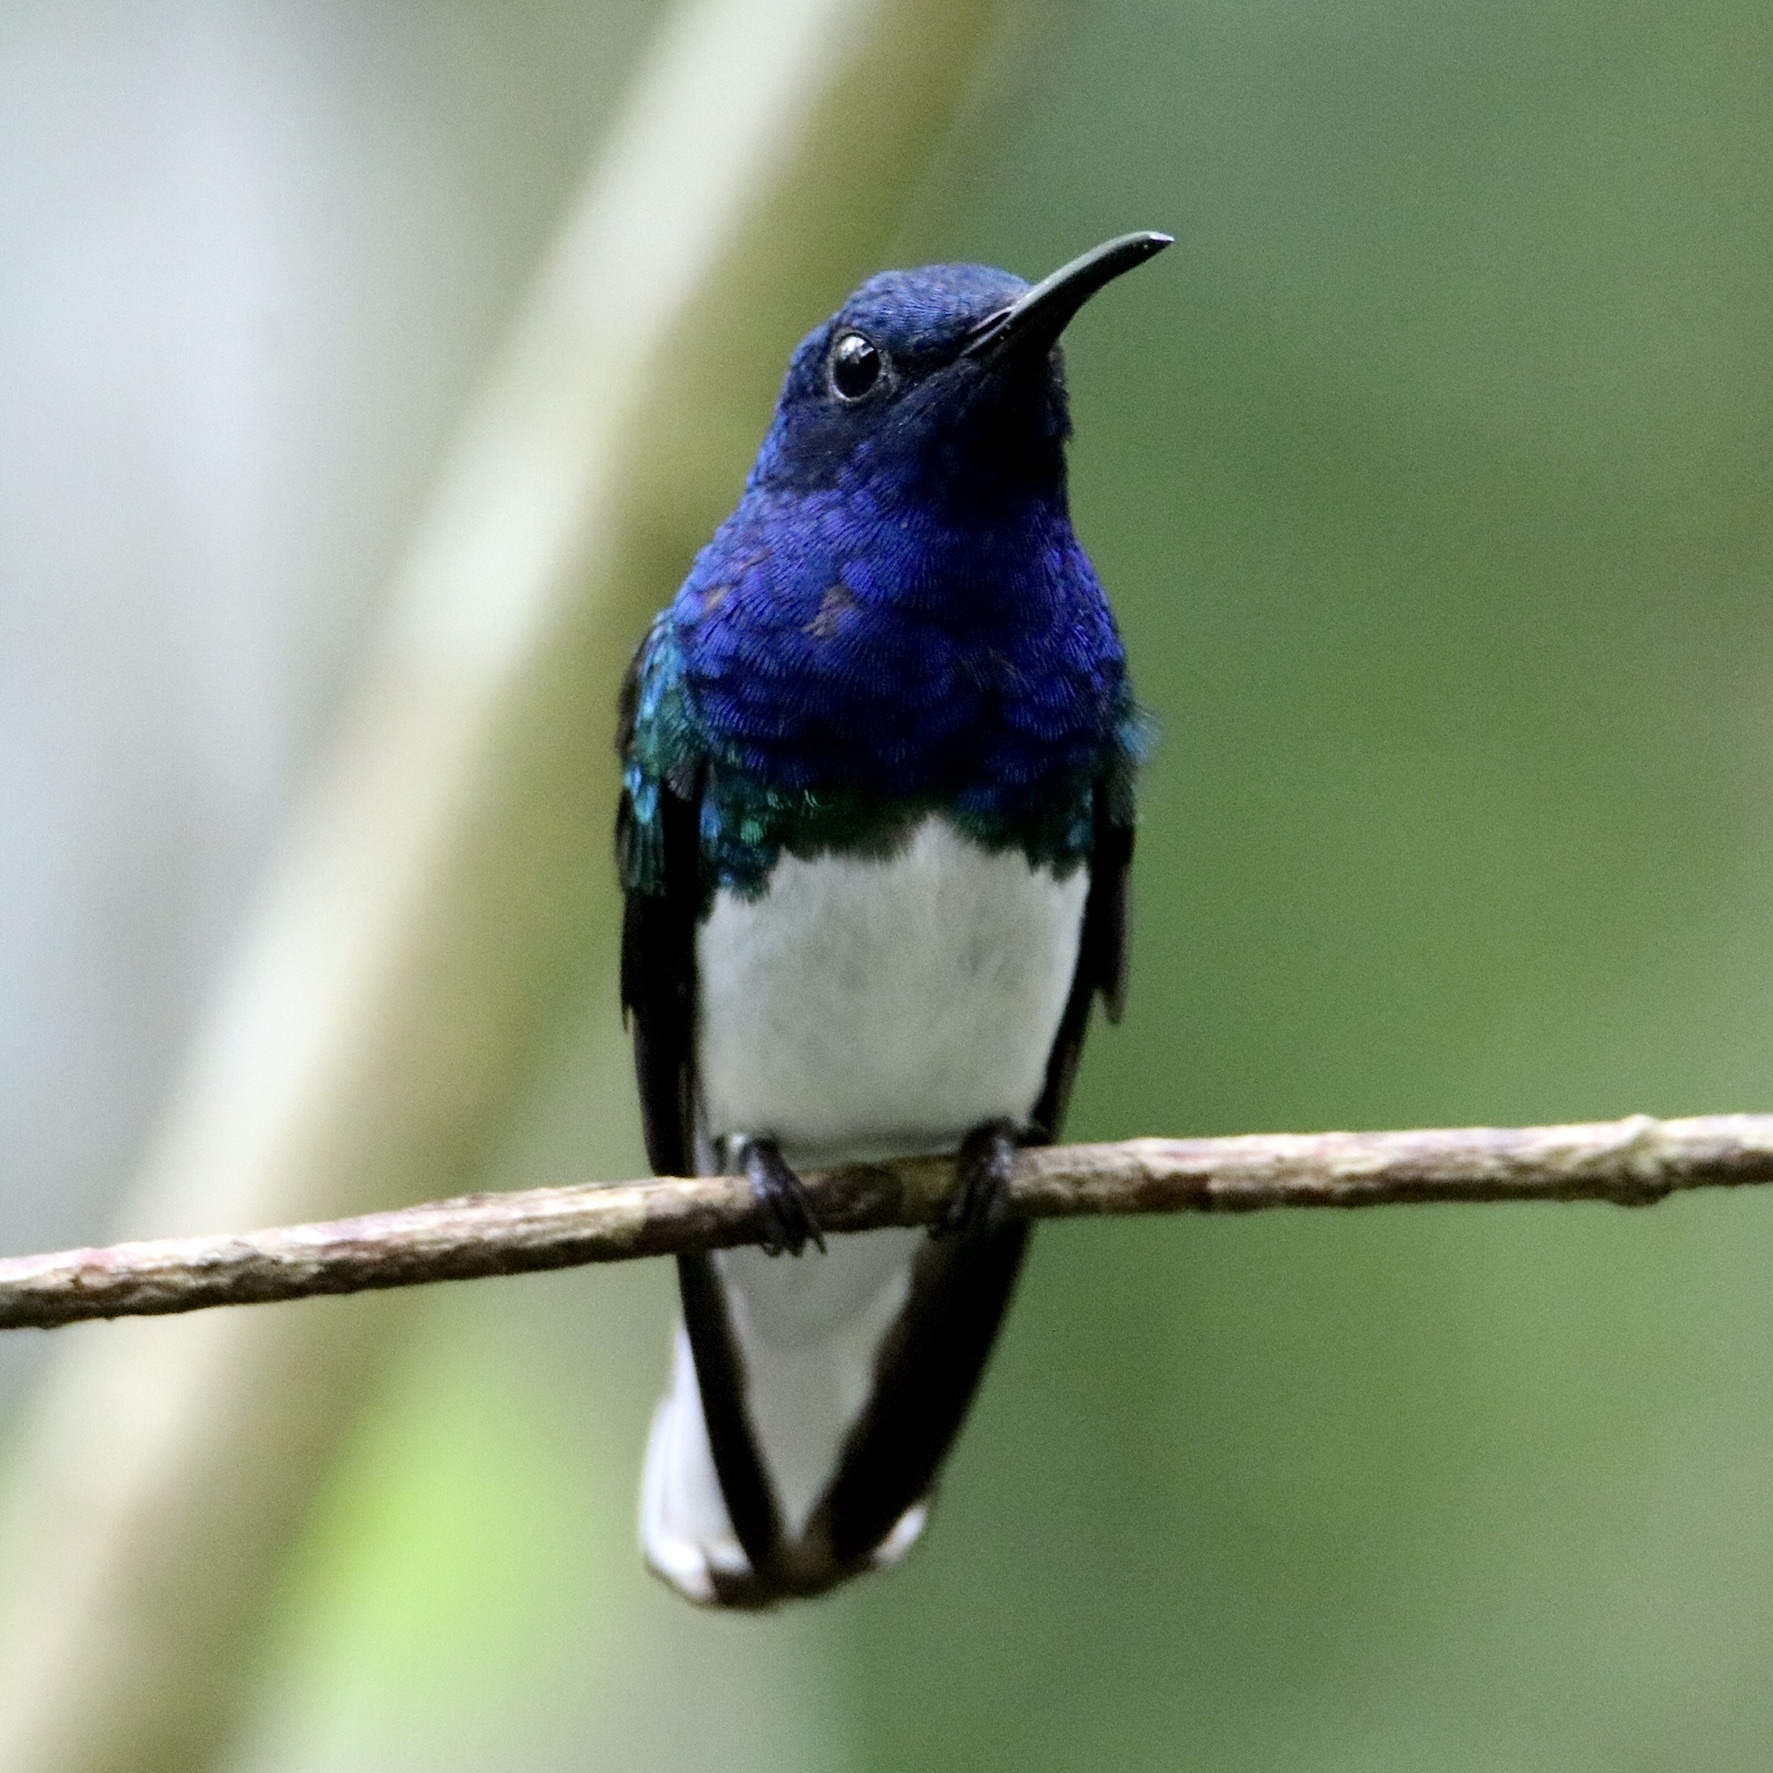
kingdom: Animalia
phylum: Chordata
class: Aves
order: Apodiformes
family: Trochilidae
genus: Florisuga
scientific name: Florisuga mellivora
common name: White-necked jacobin
